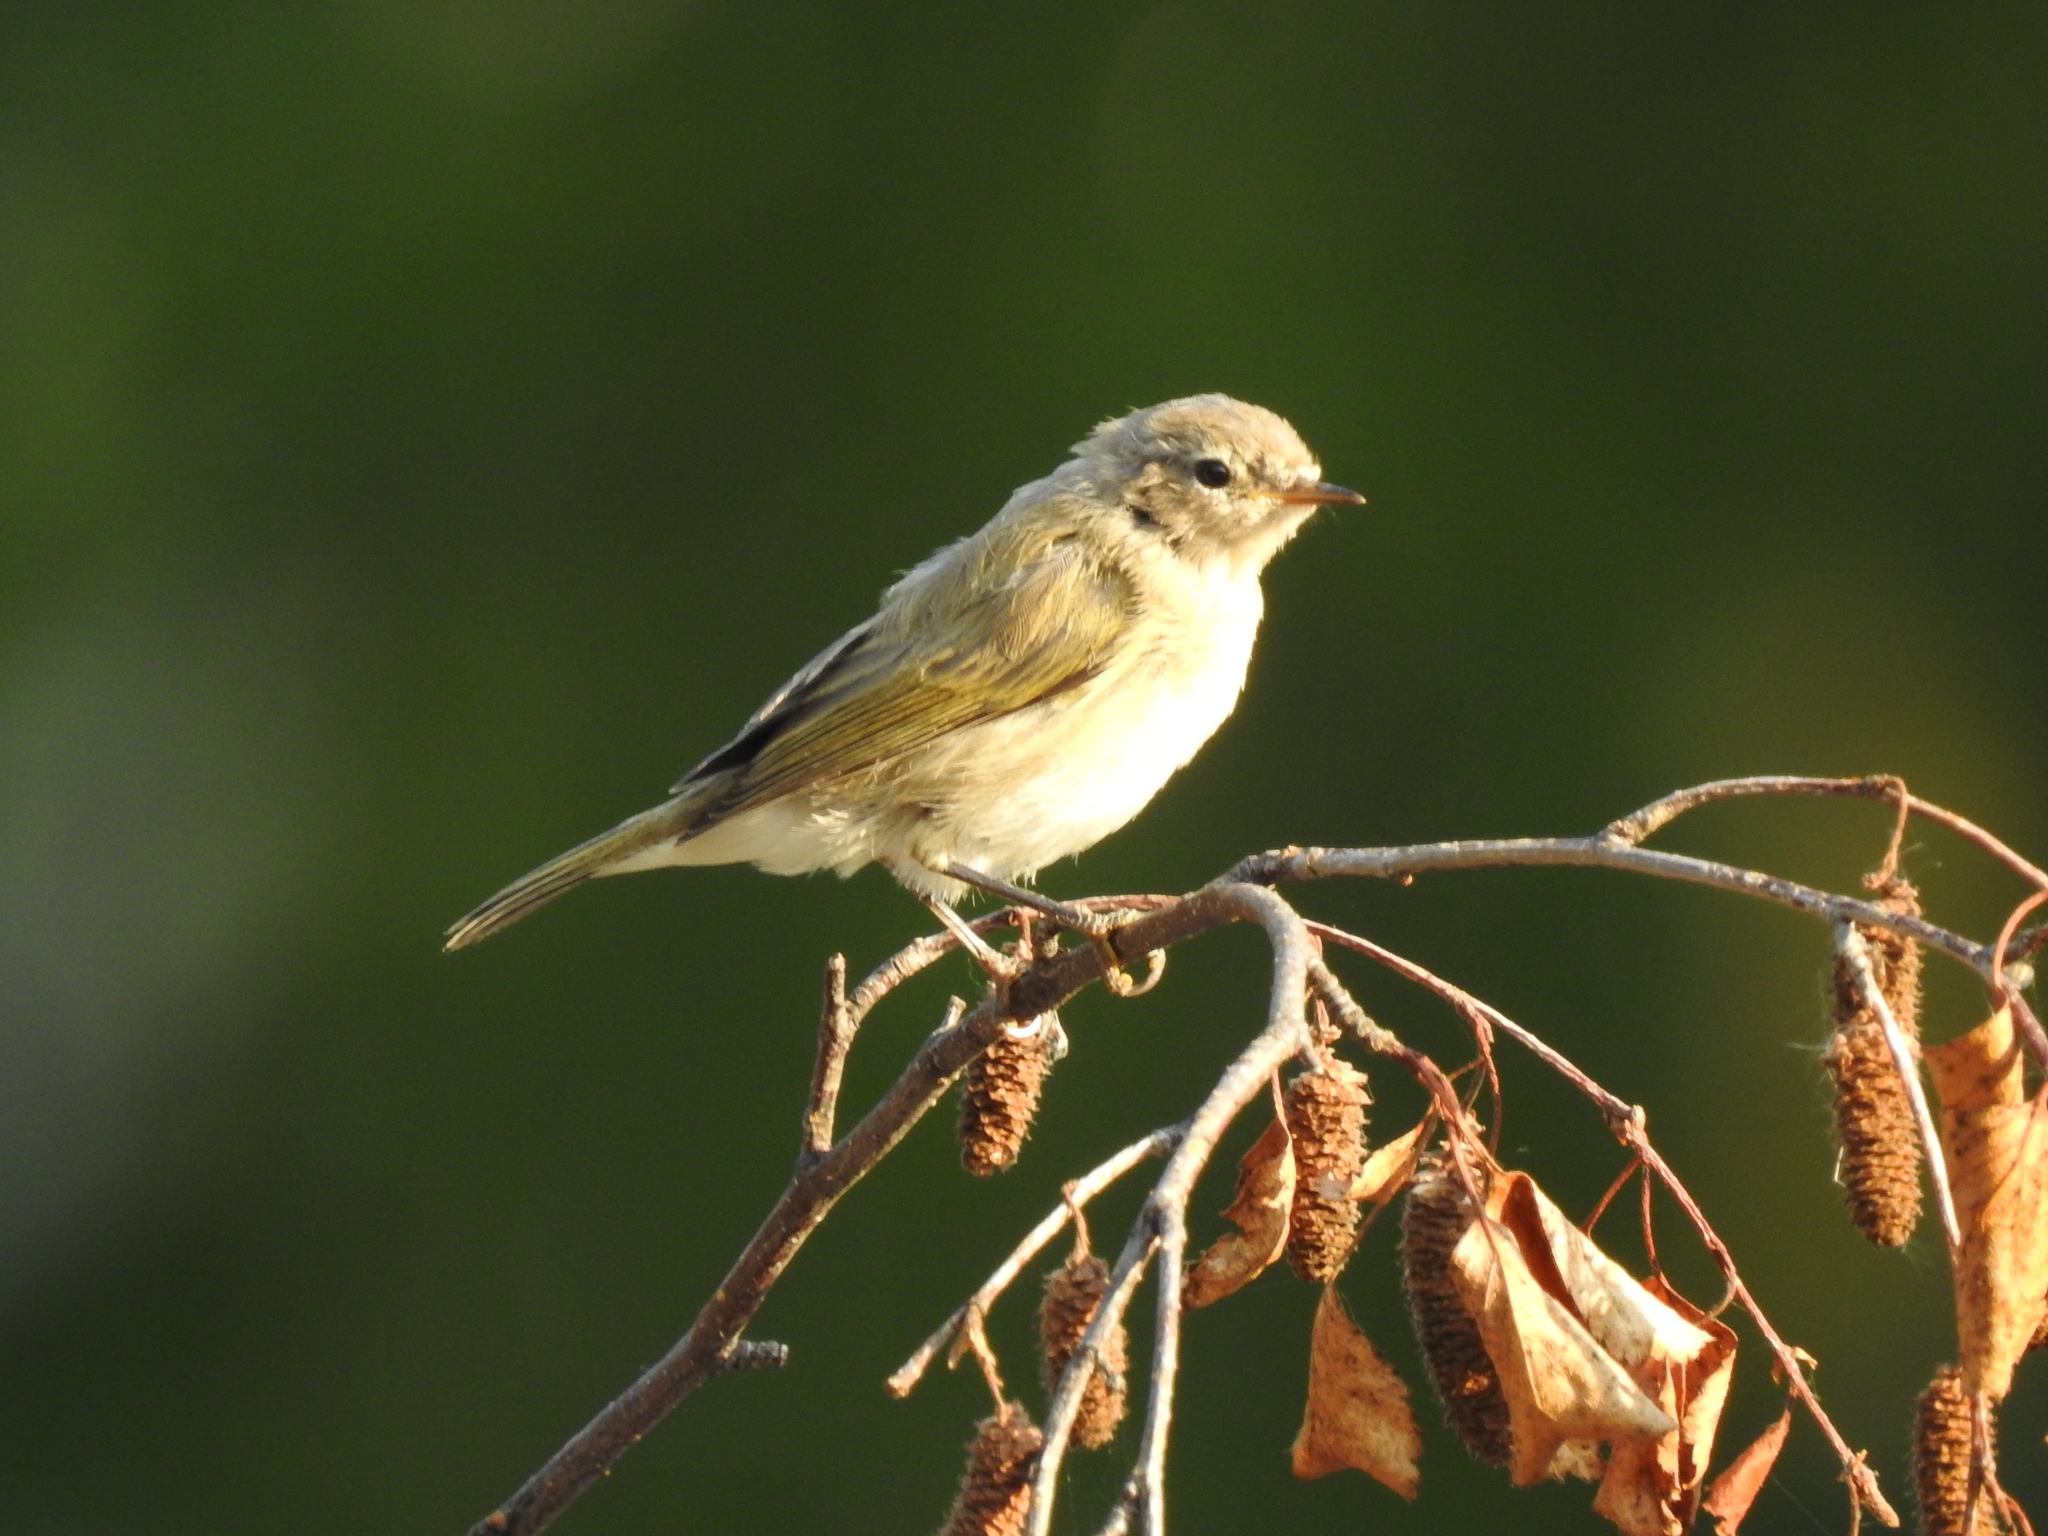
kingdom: Animalia
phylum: Chordata
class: Aves
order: Passeriformes
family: Phylloscopidae
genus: Phylloscopus
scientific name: Phylloscopus collybita
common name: Common chiffchaff
